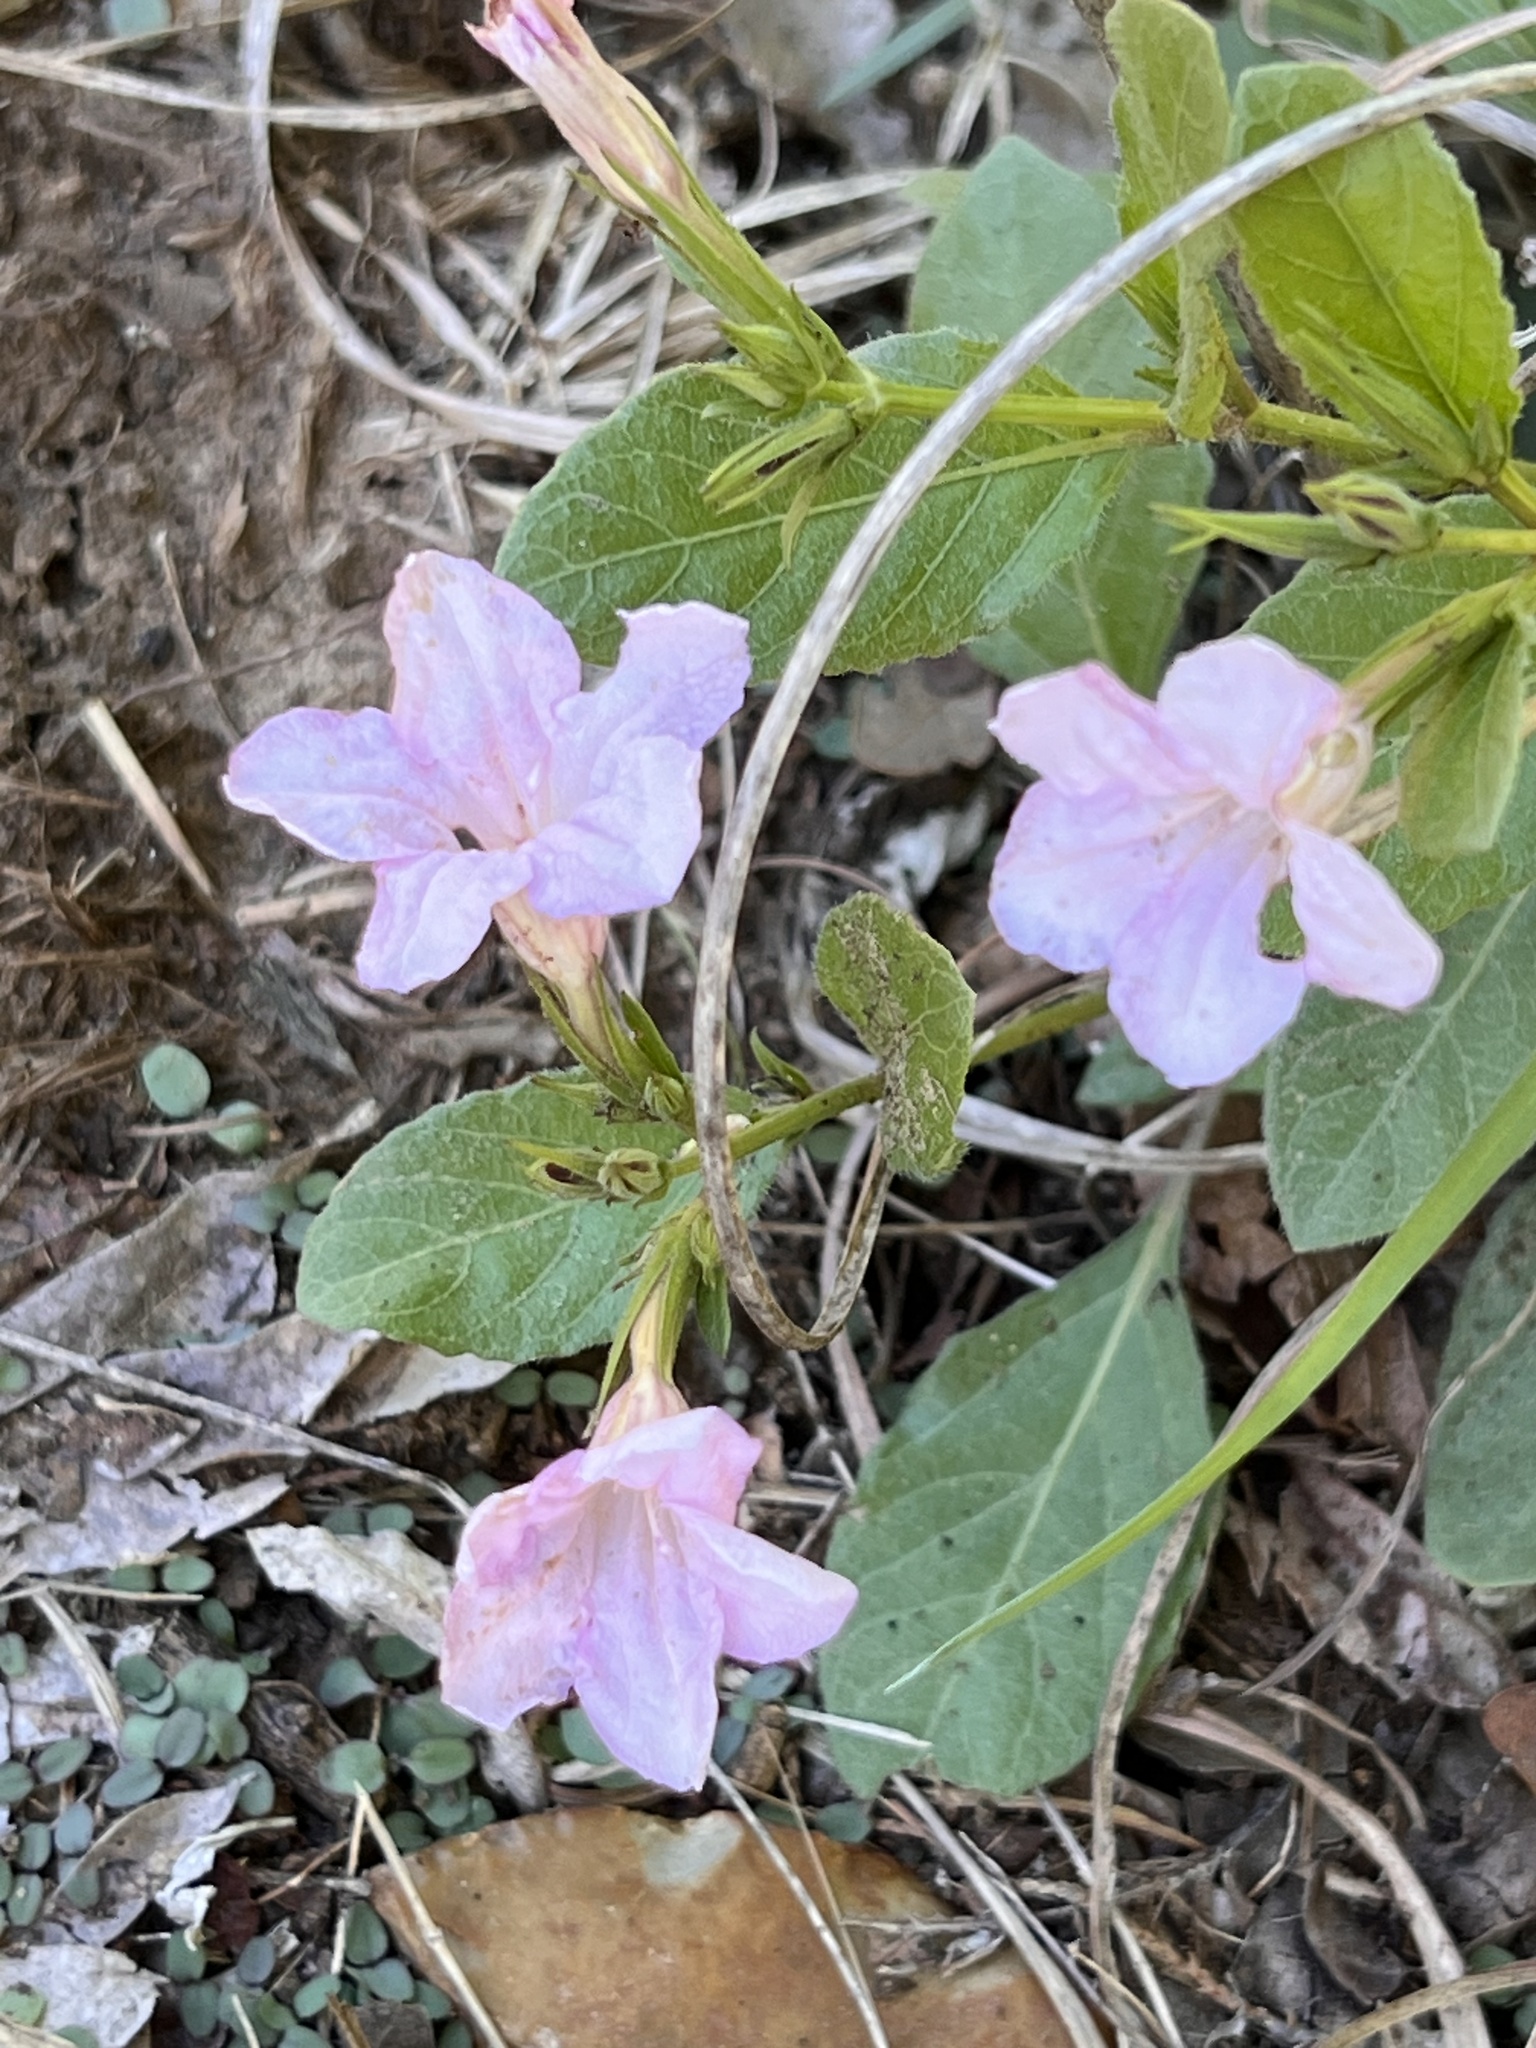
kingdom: Plantae
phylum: Tracheophyta
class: Magnoliopsida
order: Lamiales
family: Acanthaceae
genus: Ruellia
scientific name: Ruellia ciliatiflora
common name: Hairyflower wild petunia
